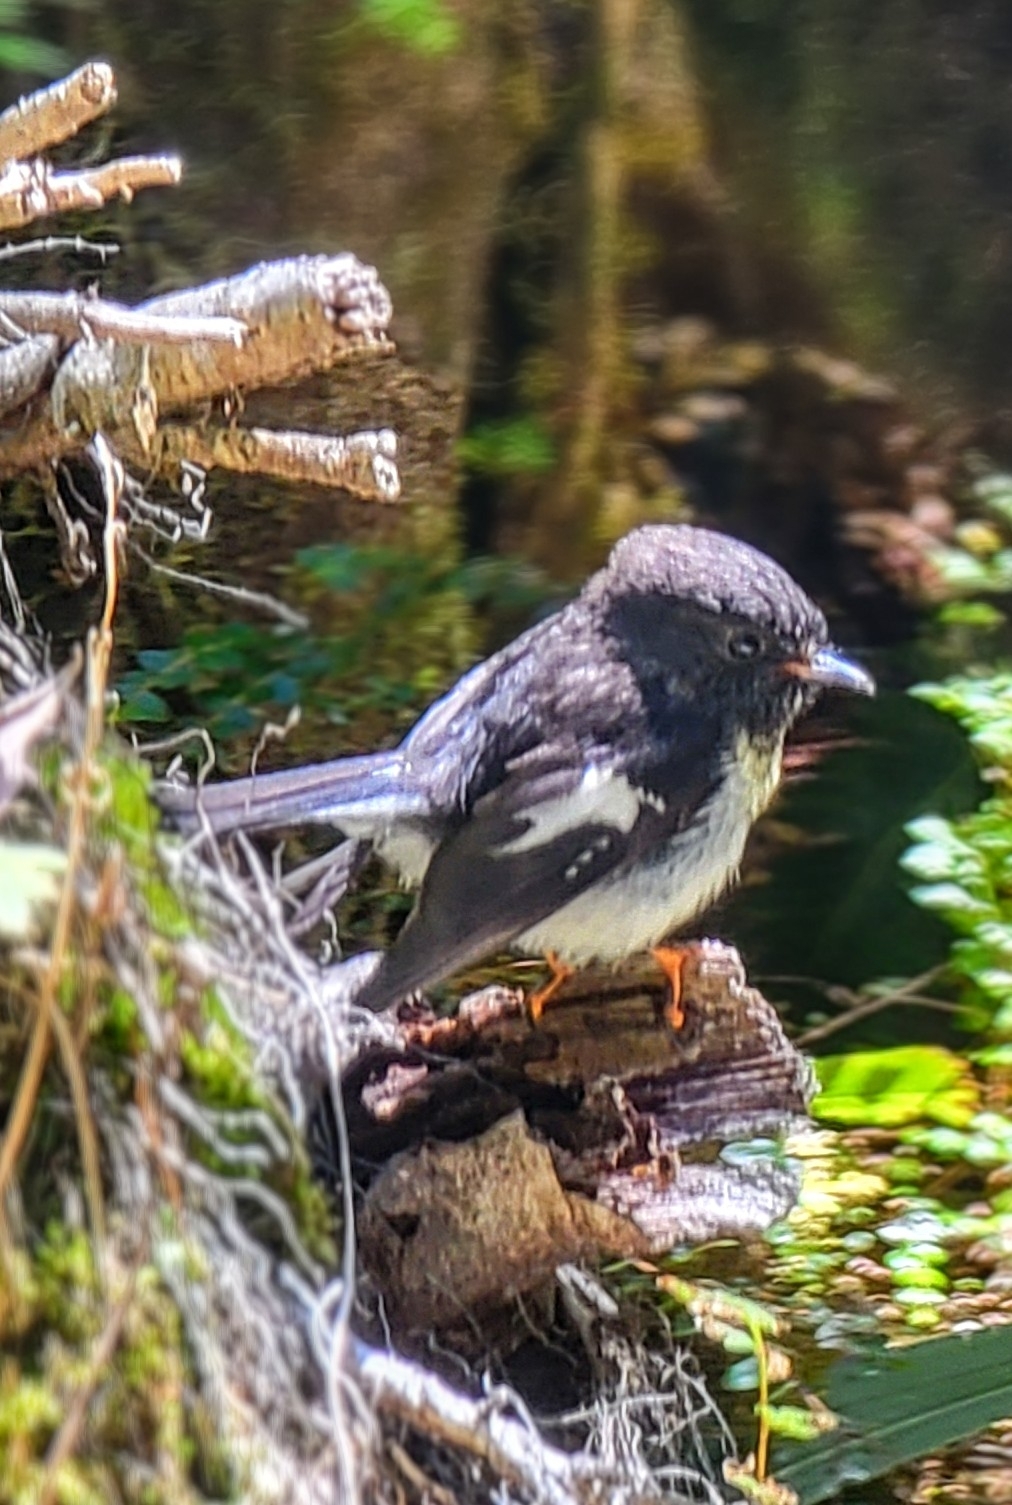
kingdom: Animalia
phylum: Chordata
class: Aves
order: Passeriformes
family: Petroicidae
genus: Petroica
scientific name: Petroica macrocephala
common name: Tomtit
